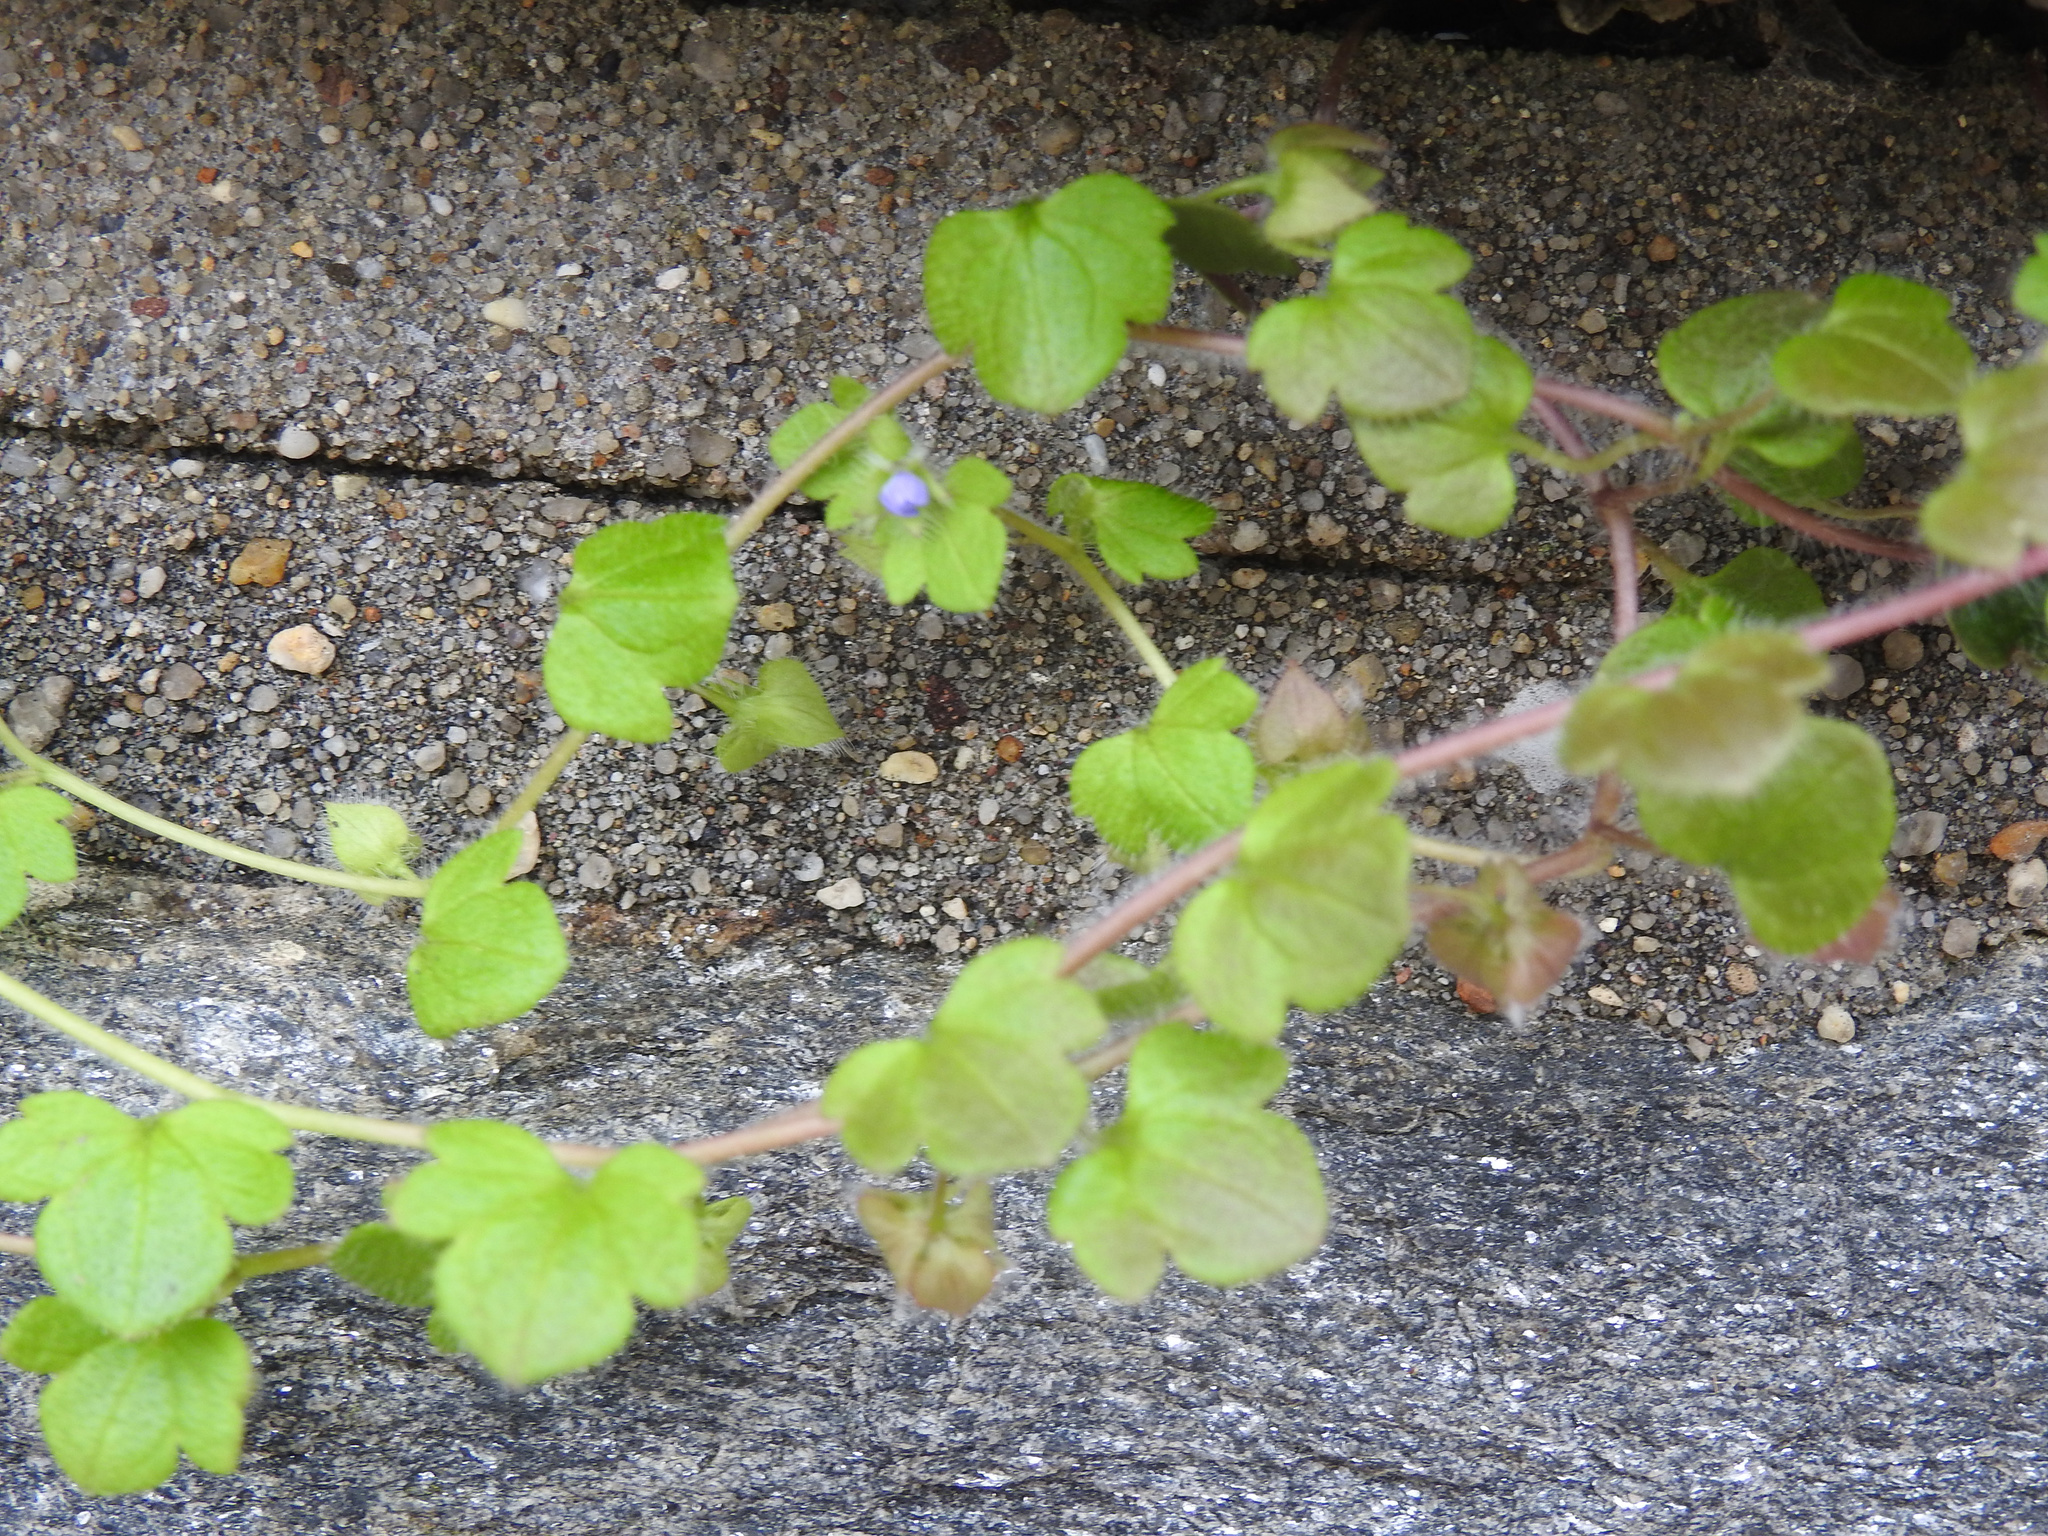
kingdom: Plantae
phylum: Tracheophyta
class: Magnoliopsida
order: Lamiales
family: Plantaginaceae
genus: Veronica
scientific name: Veronica hederifolia
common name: Ivy-leaved speedwell
